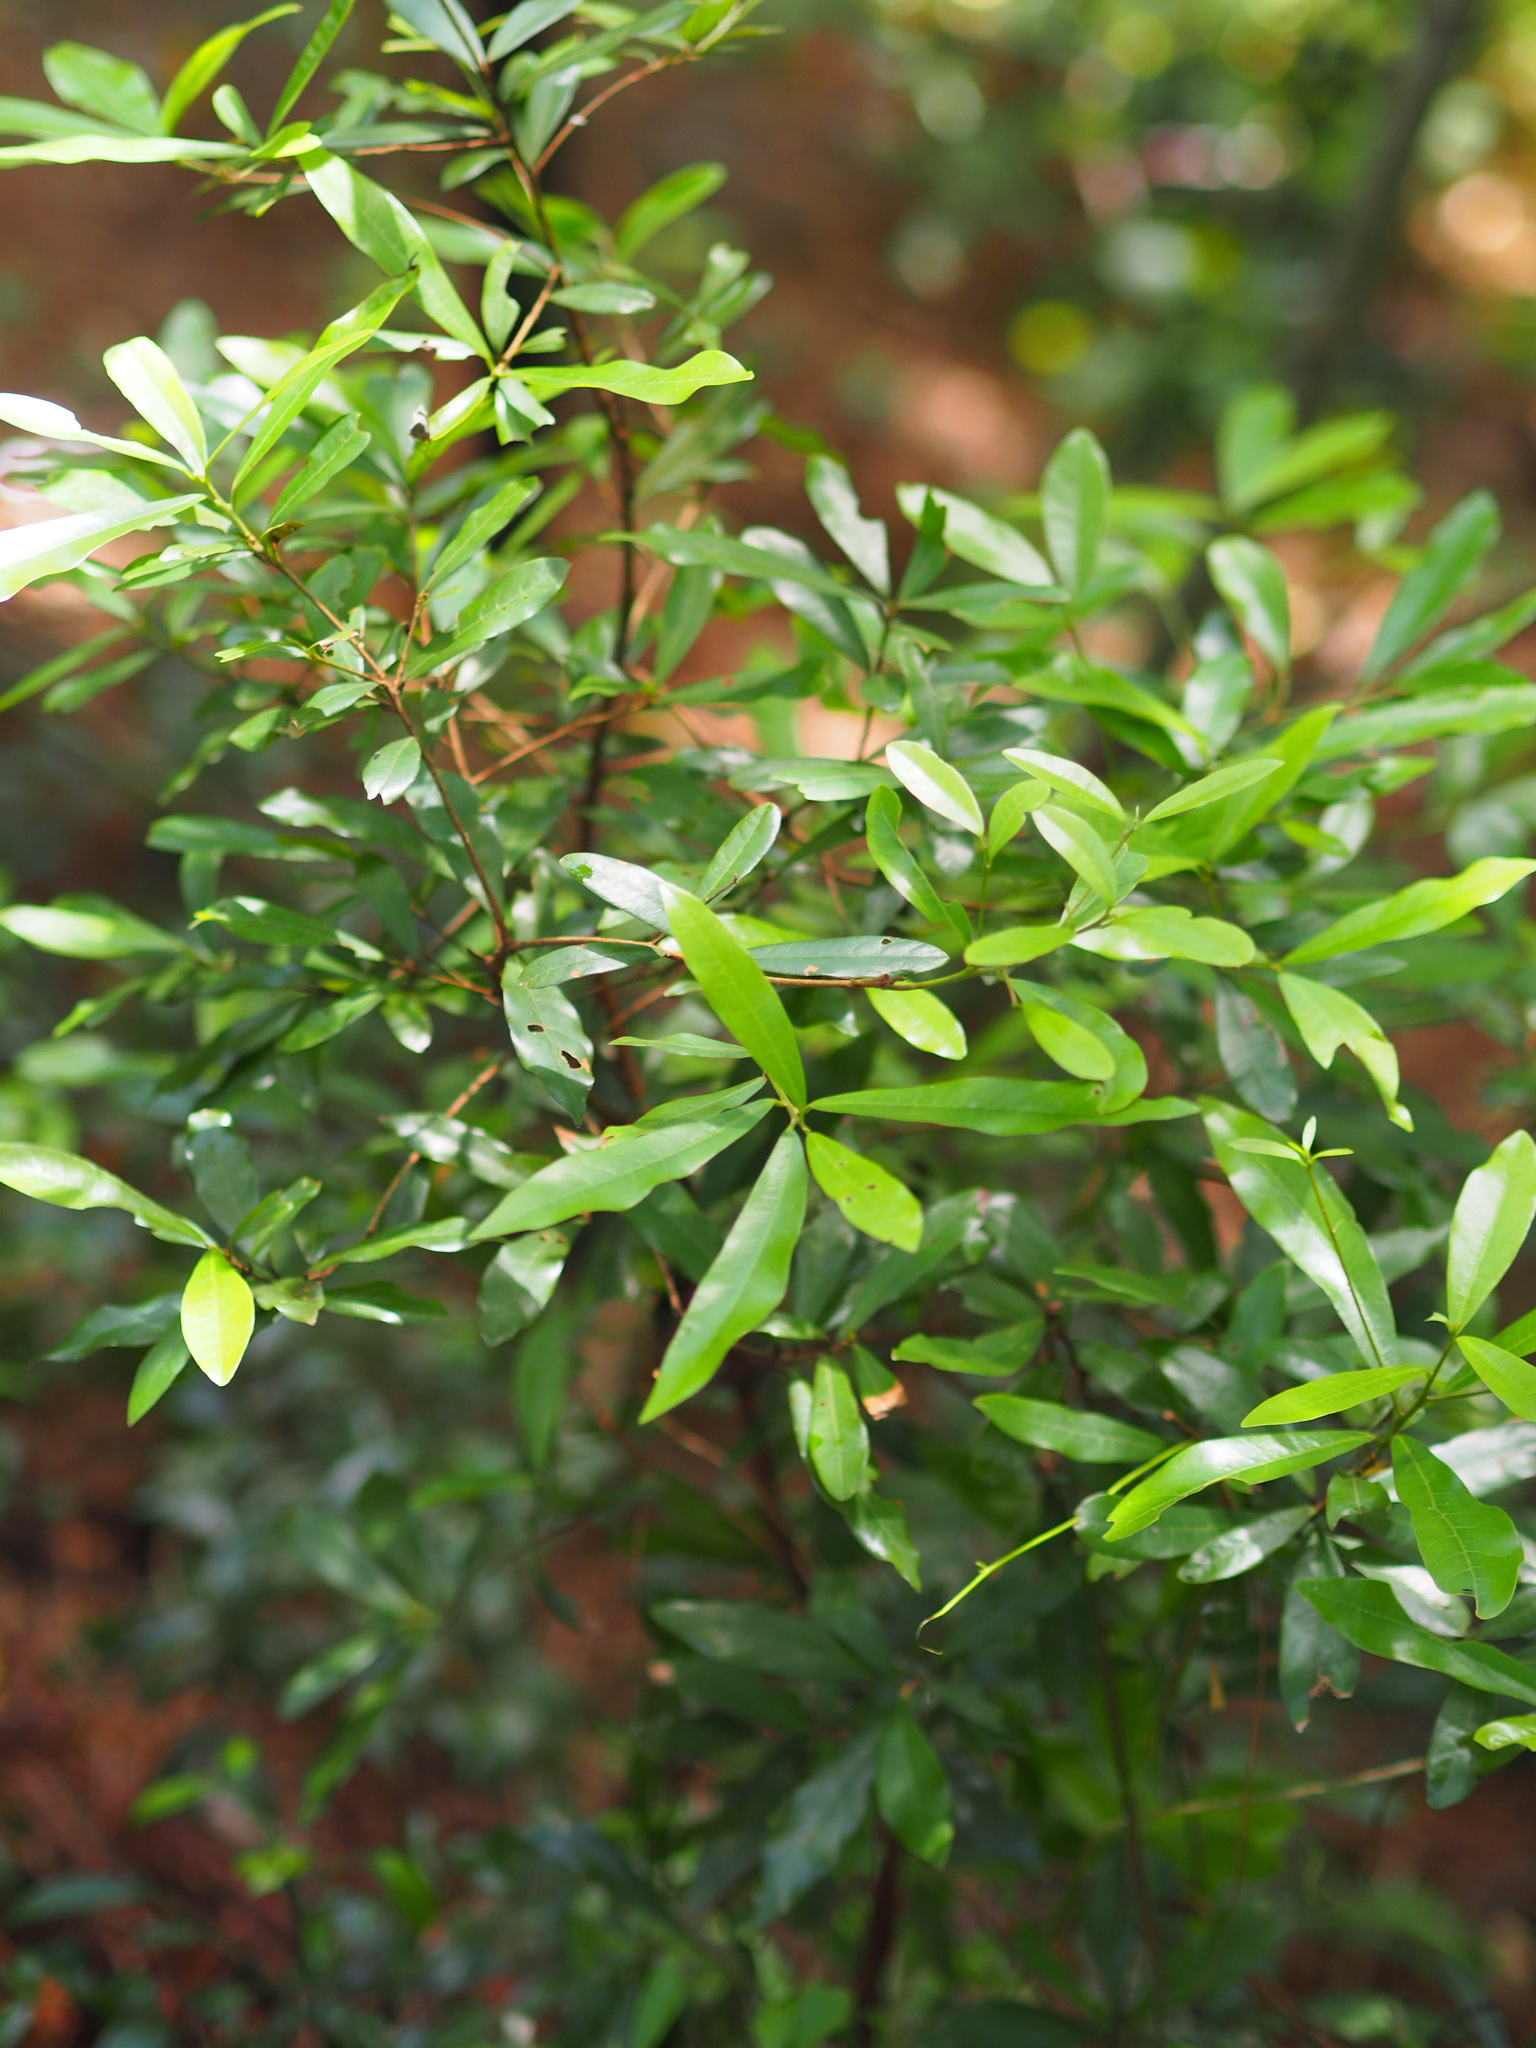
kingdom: Plantae
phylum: Tracheophyta
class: Magnoliopsida
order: Laurales
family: Lauraceae
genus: Litsea
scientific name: Litsea hypophaea
